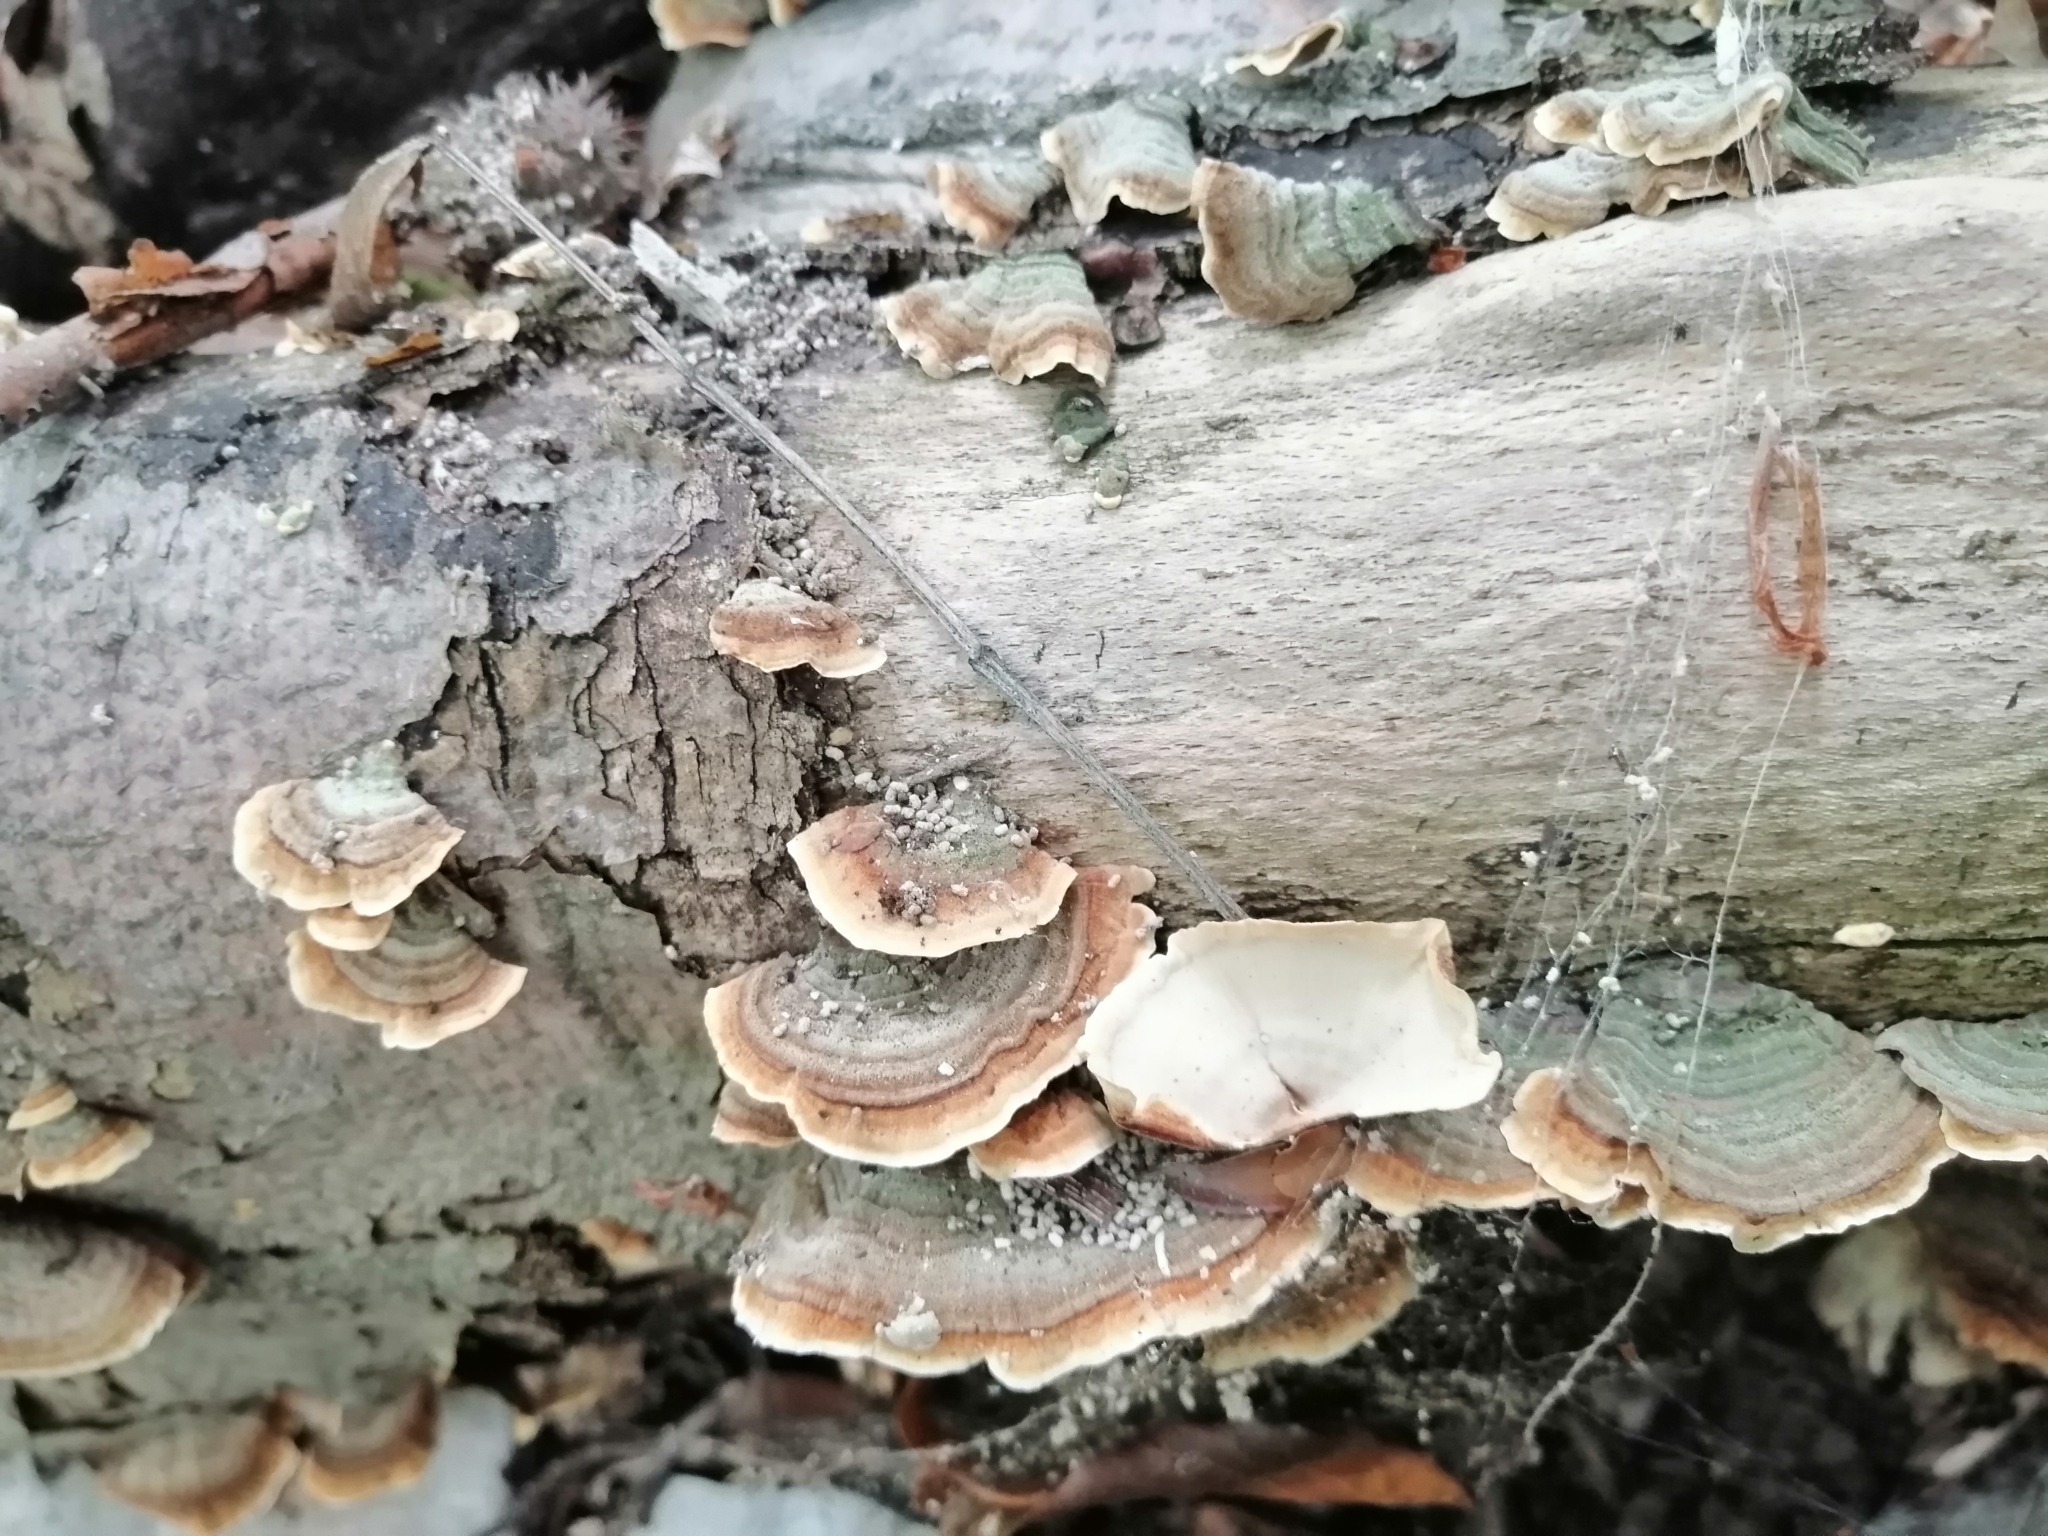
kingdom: Fungi
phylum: Basidiomycota
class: Agaricomycetes
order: Russulales
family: Stereaceae
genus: Stereum
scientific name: Stereum subtomentosum
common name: Yellowing curtain crust
